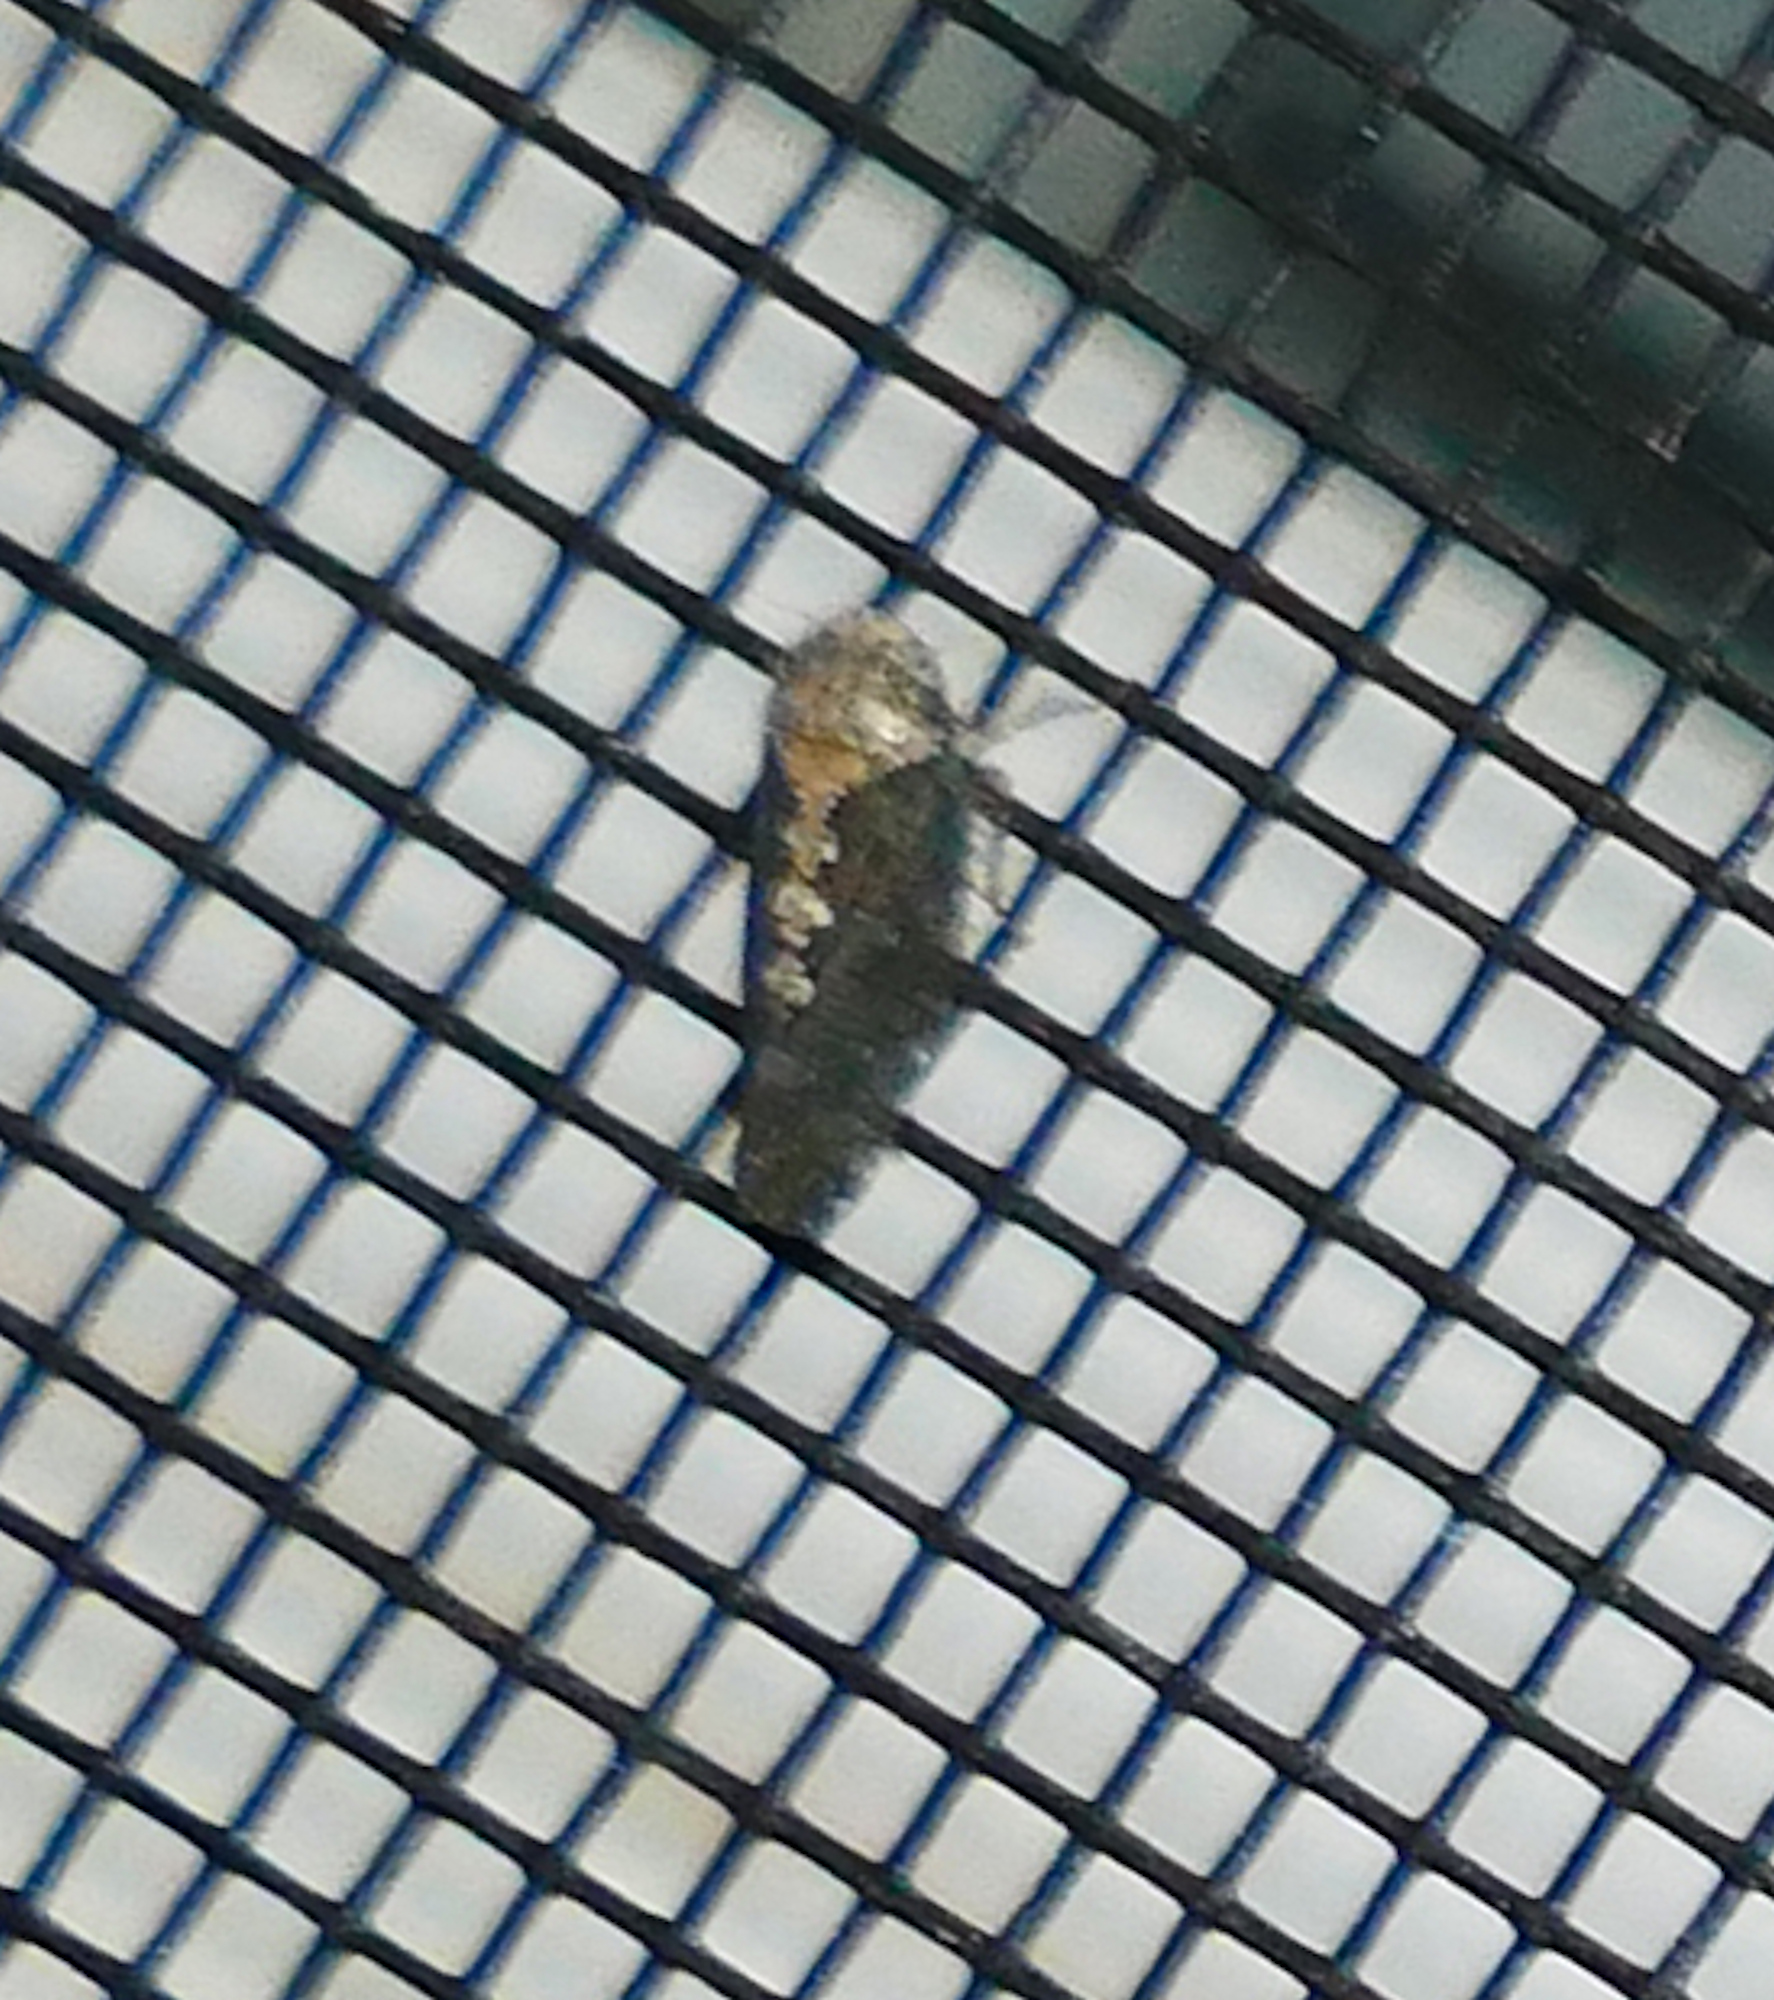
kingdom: Animalia
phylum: Arthropoda
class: Insecta
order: Hemiptera
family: Cicadellidae
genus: Excultanus
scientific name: Excultanus excultus
